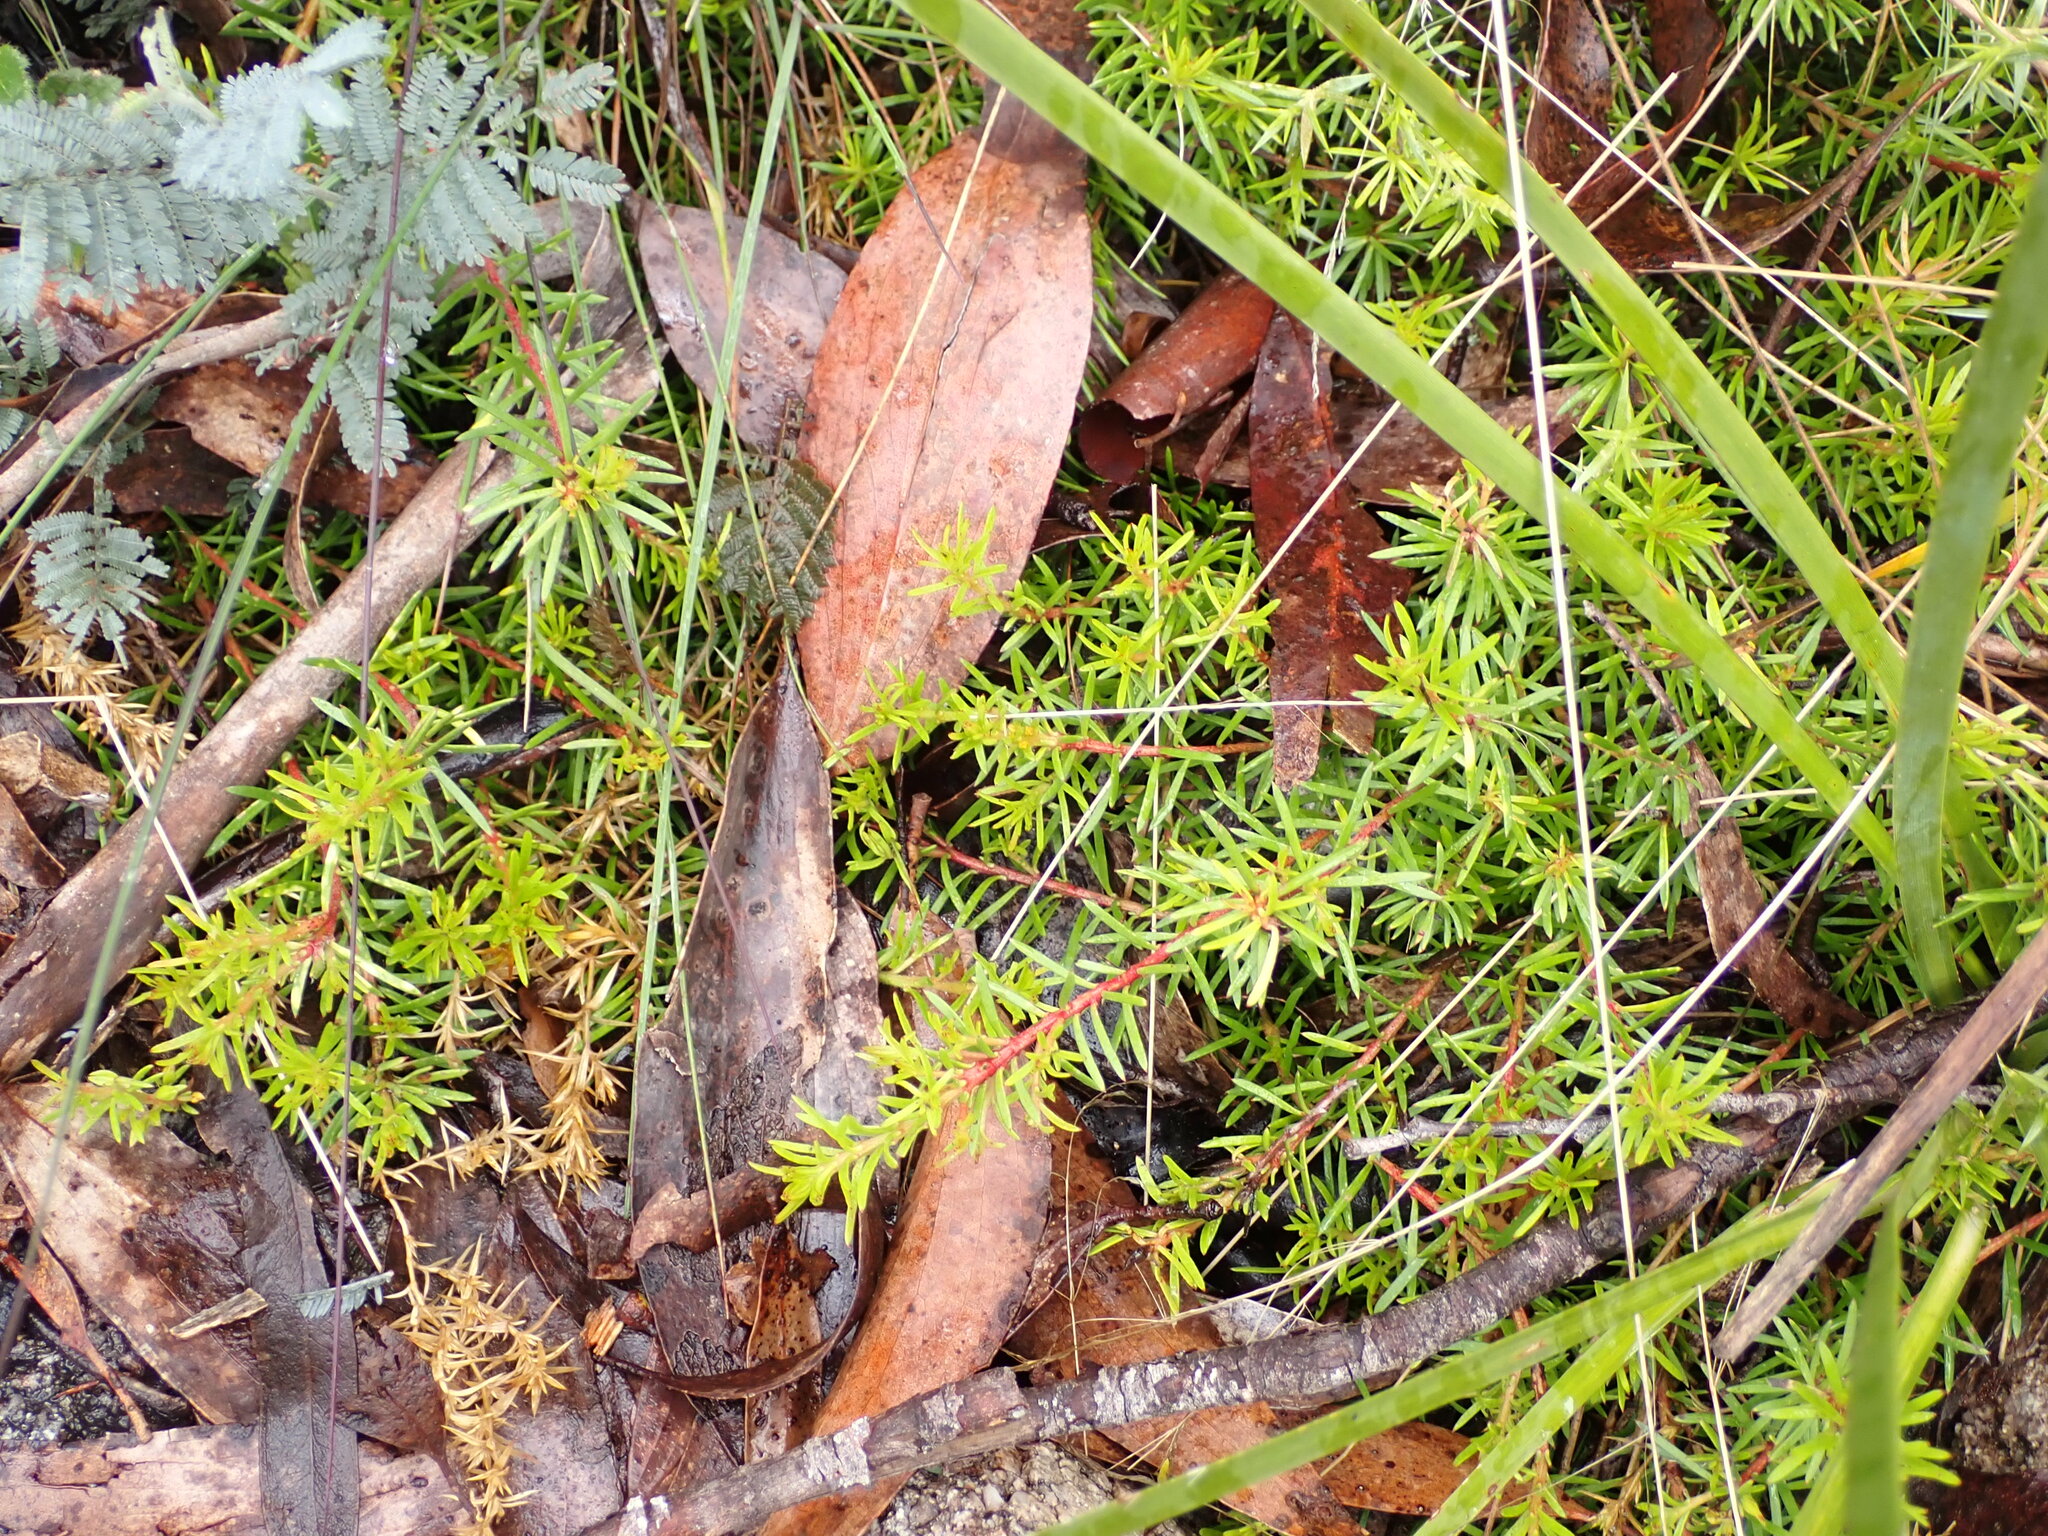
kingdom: Plantae
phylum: Tracheophyta
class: Magnoliopsida
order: Proteales
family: Proteaceae
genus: Persoonia
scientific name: Persoonia chamaepeuce
